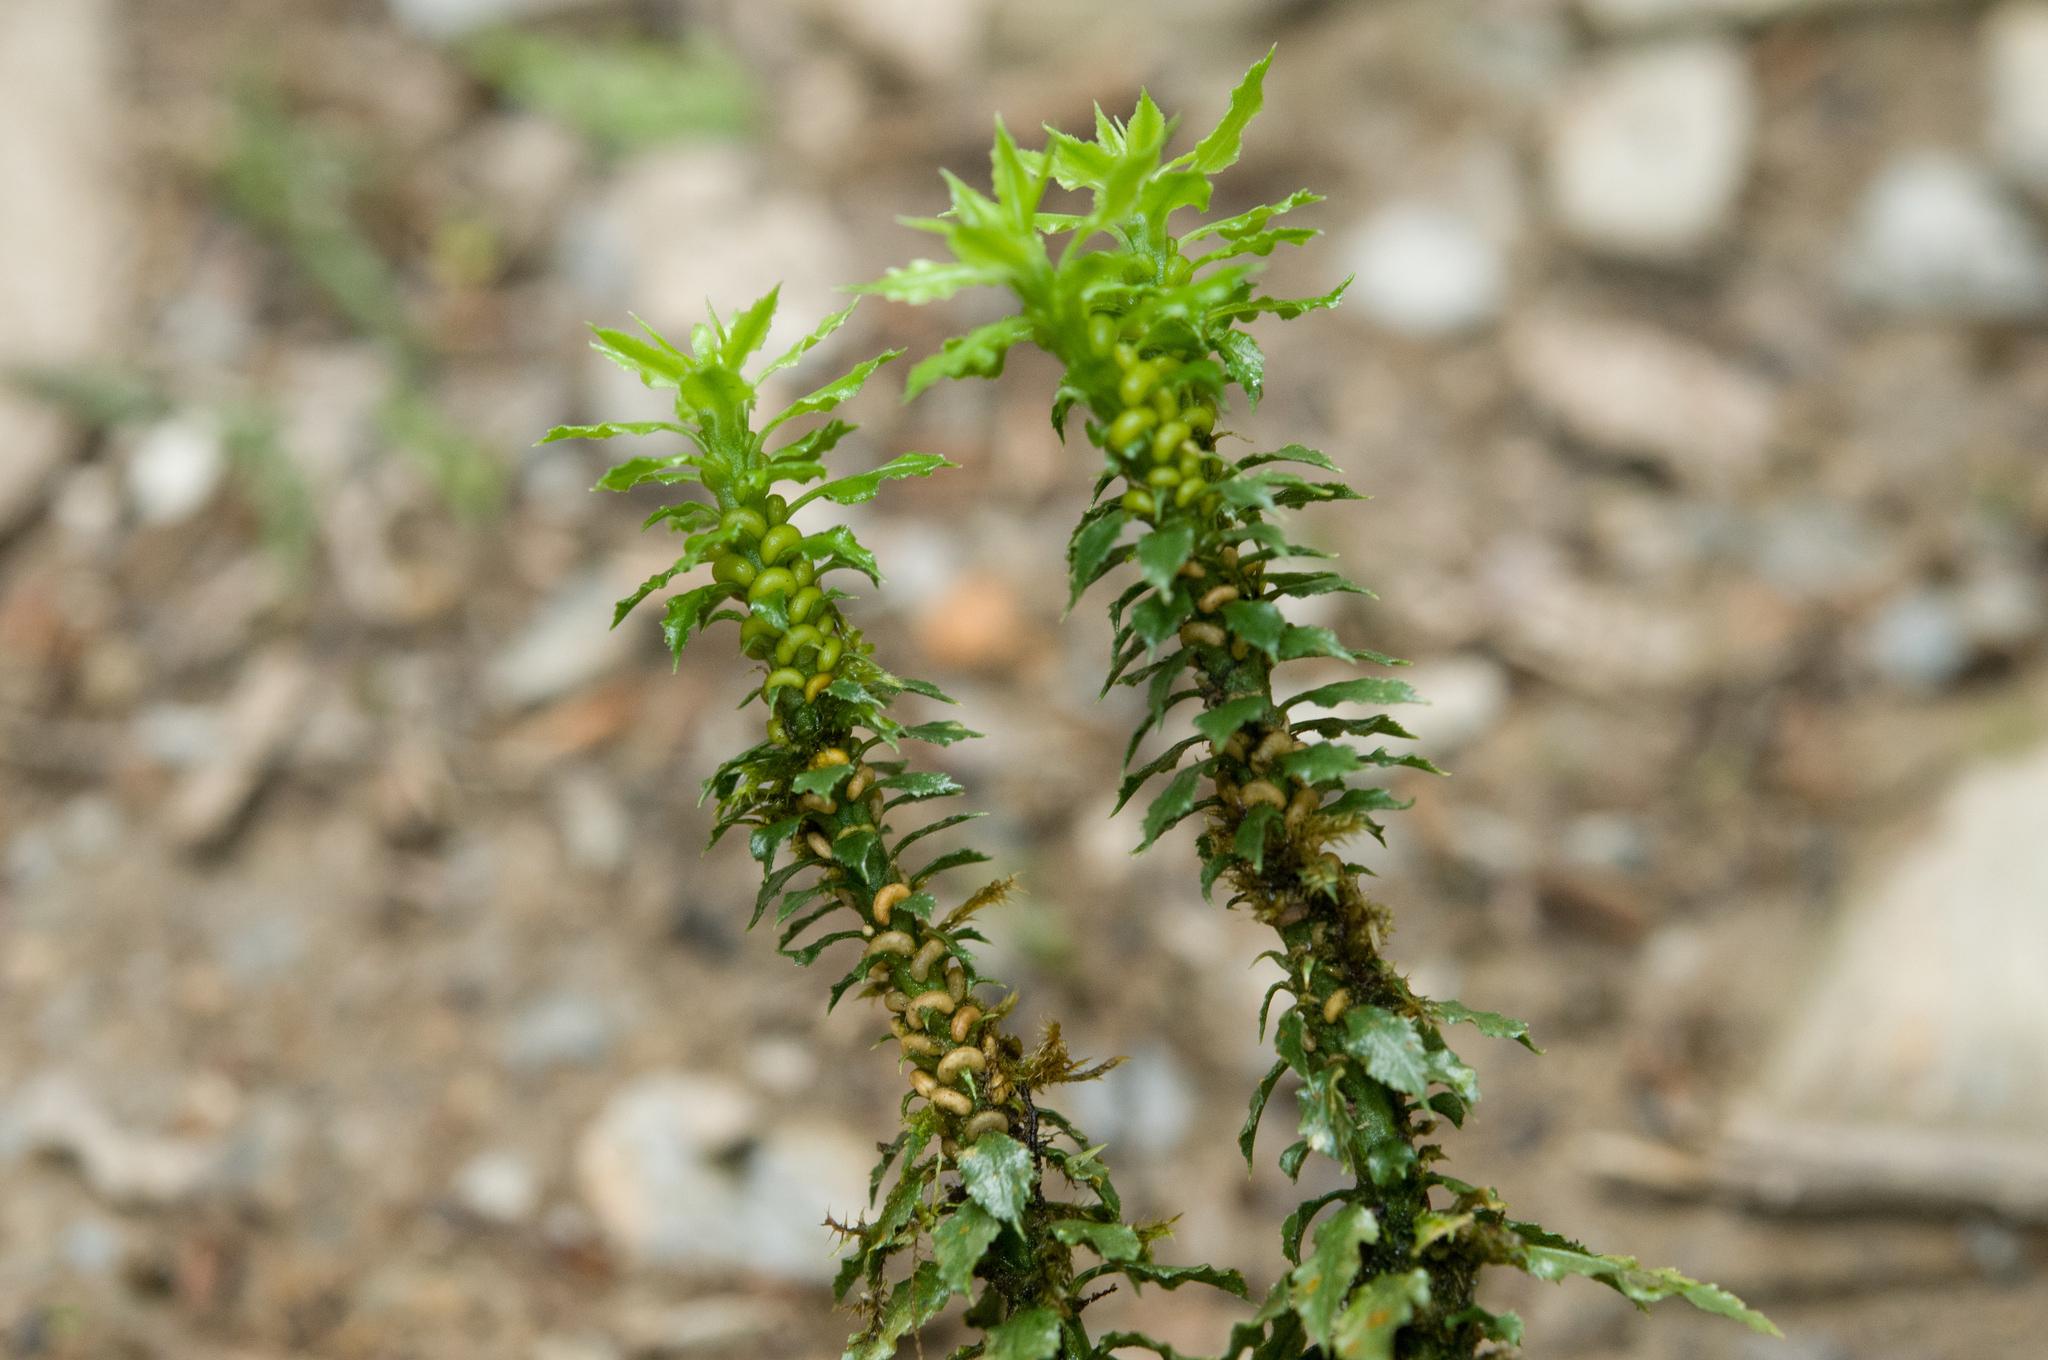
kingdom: Plantae
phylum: Tracheophyta
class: Lycopodiopsida
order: Lycopodiales
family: Lycopodiaceae
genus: Huperzia
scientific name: Huperzia serrata
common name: Toothed club-moss
